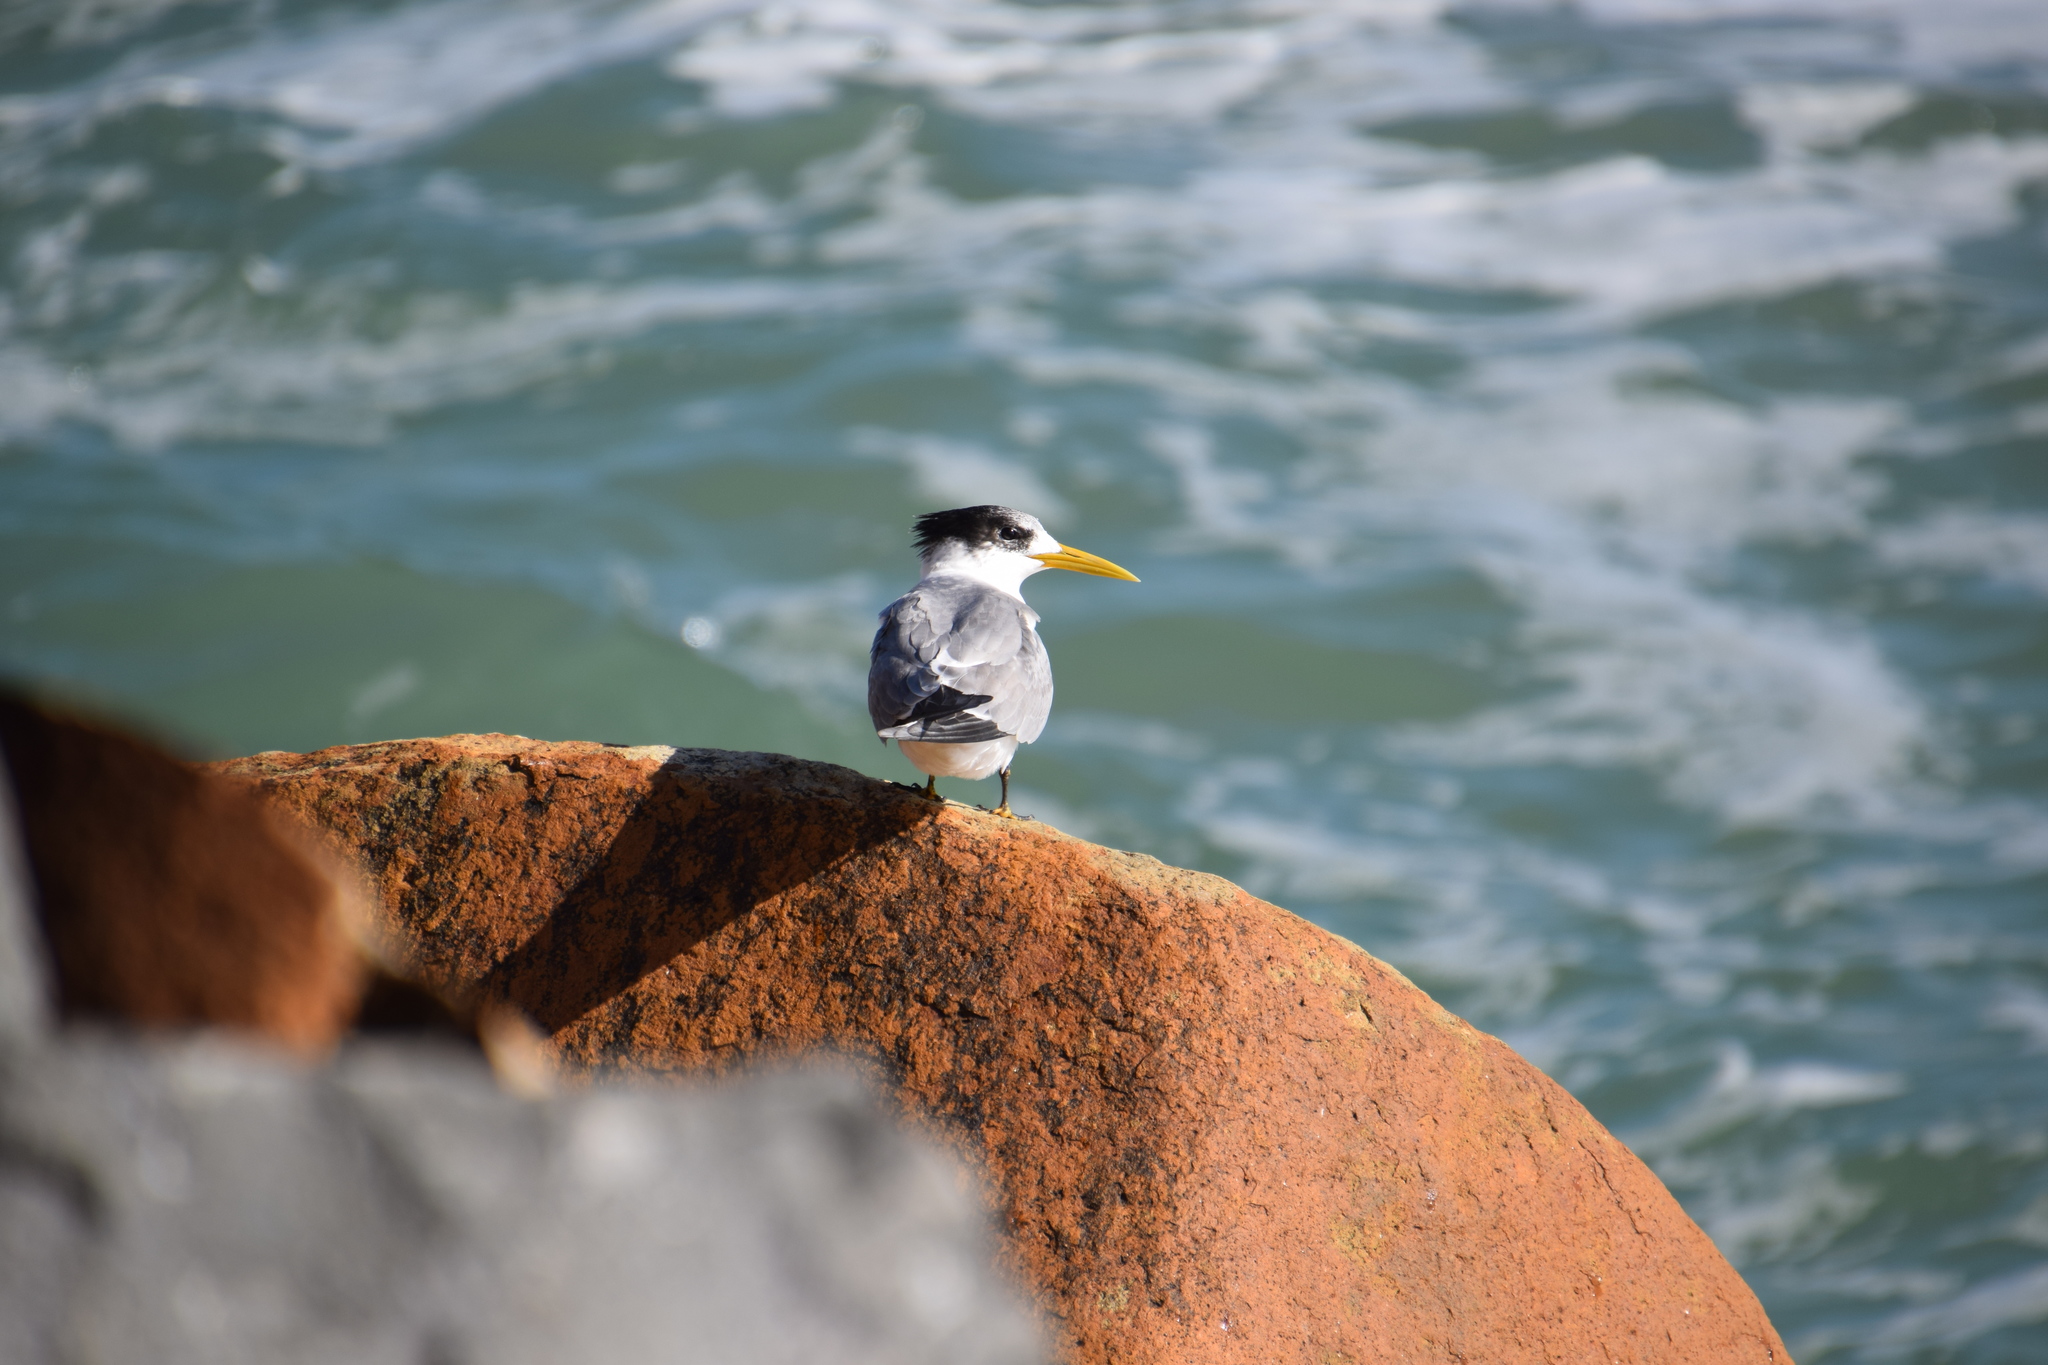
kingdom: Animalia
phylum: Chordata
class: Aves
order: Charadriiformes
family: Laridae
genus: Thalasseus
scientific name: Thalasseus bergii
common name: Greater crested tern
